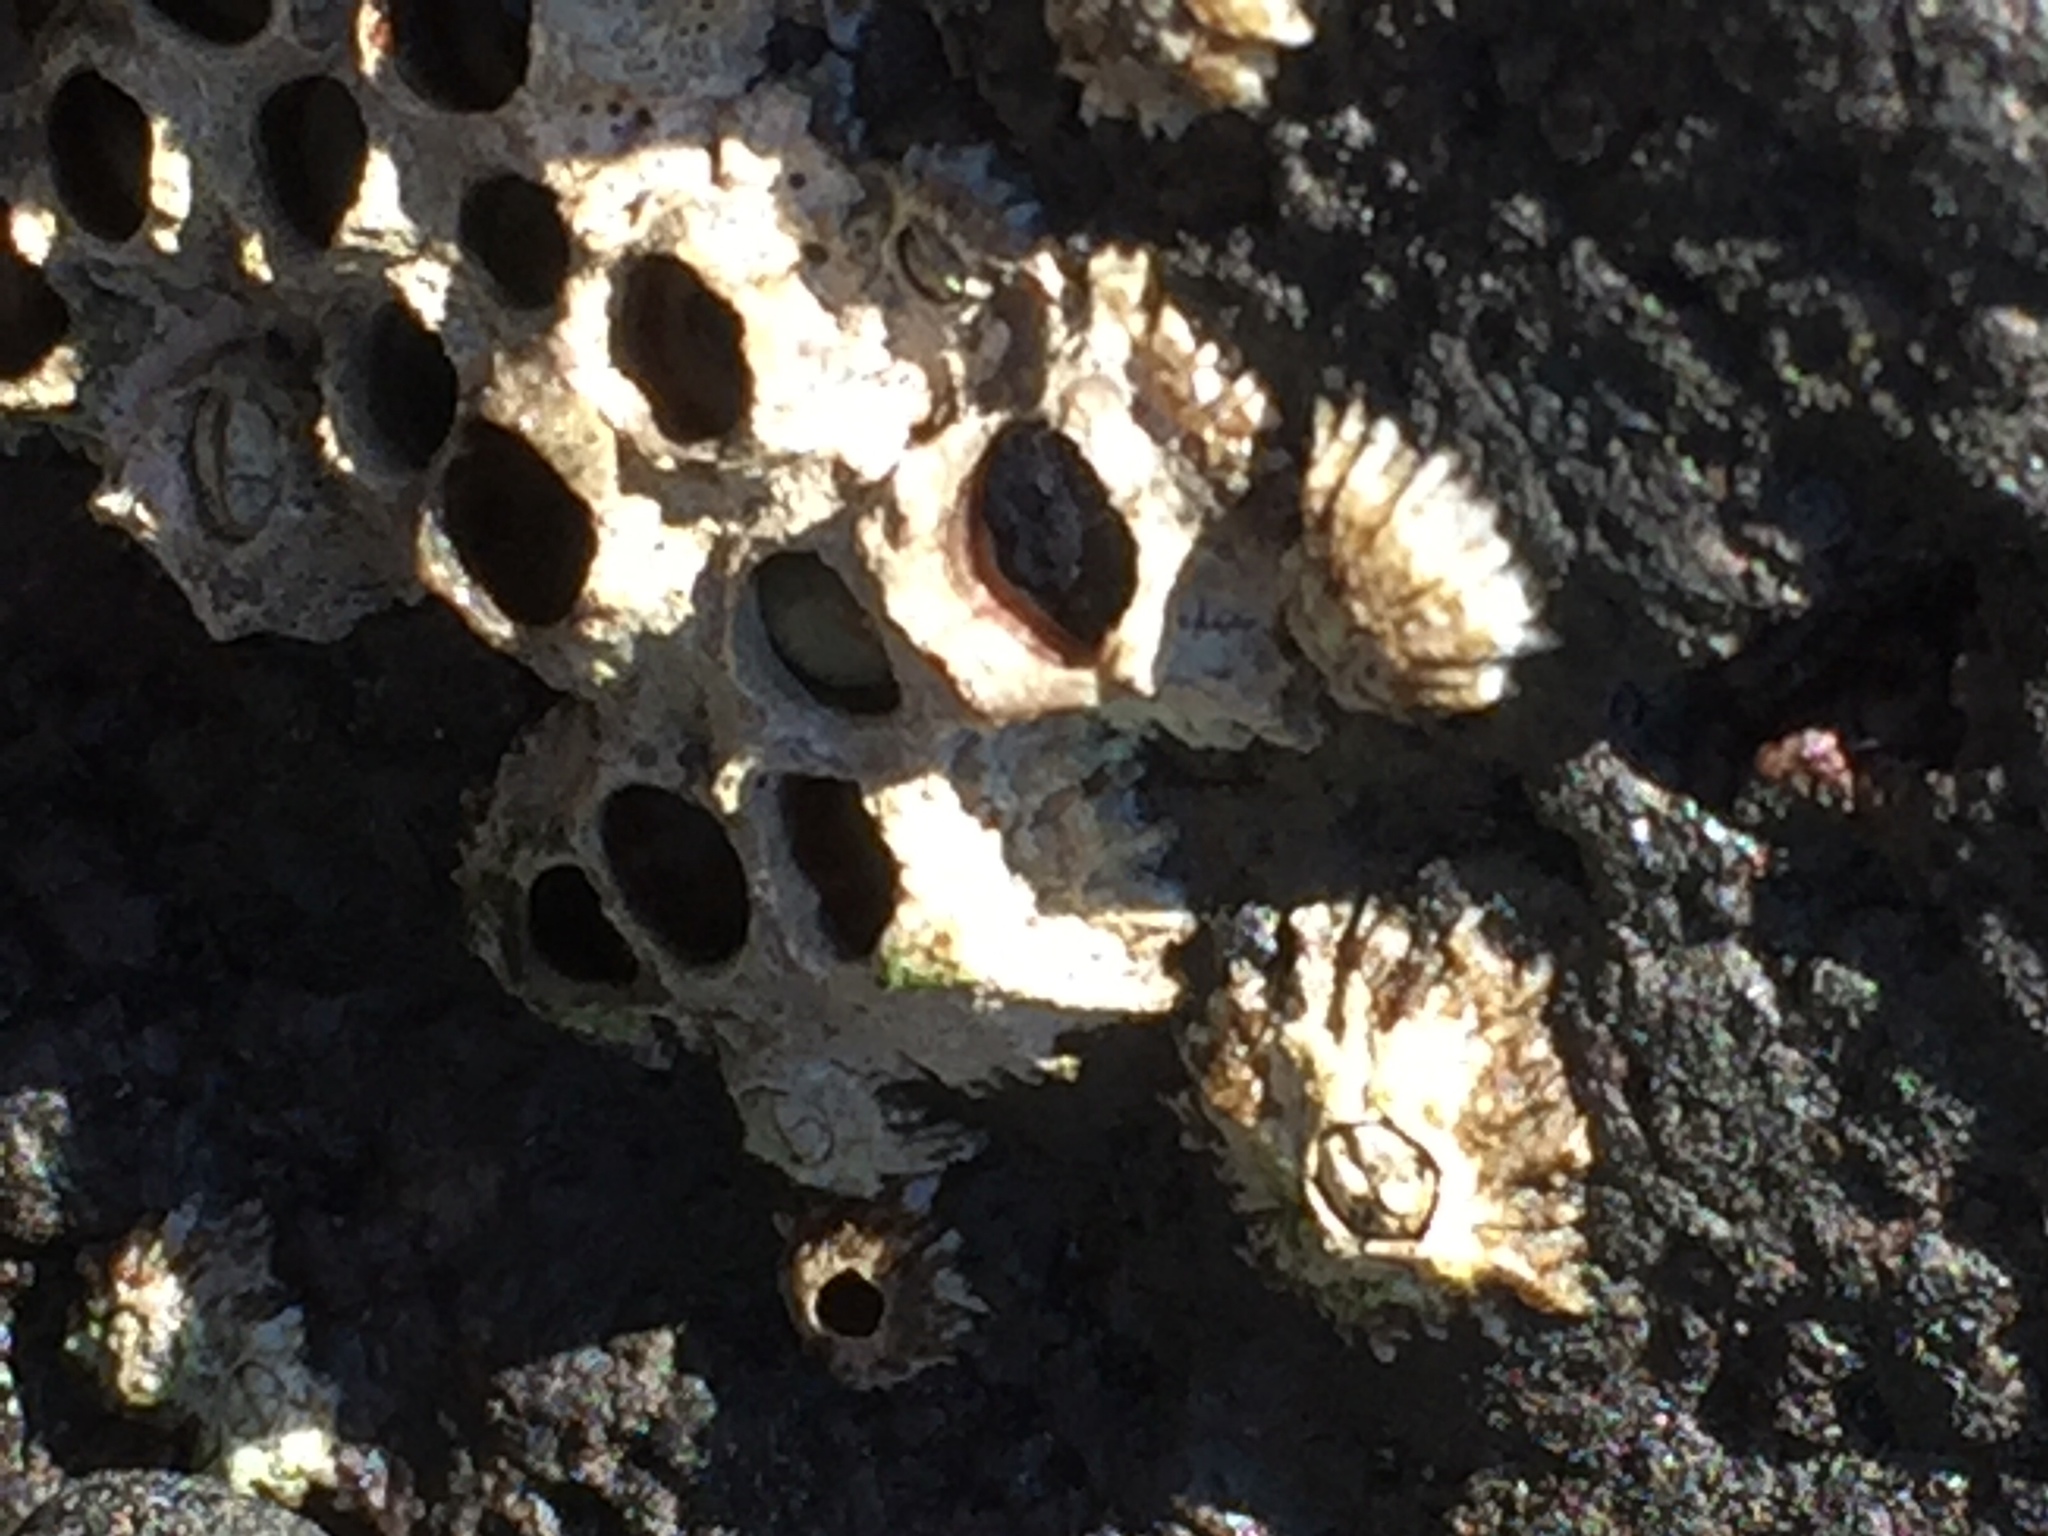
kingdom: Animalia
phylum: Arthropoda
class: Maxillopoda
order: Sessilia
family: Chthamalidae
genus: Chthamalus
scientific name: Chthamalus stellatus
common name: Poli's stellate barnacle
